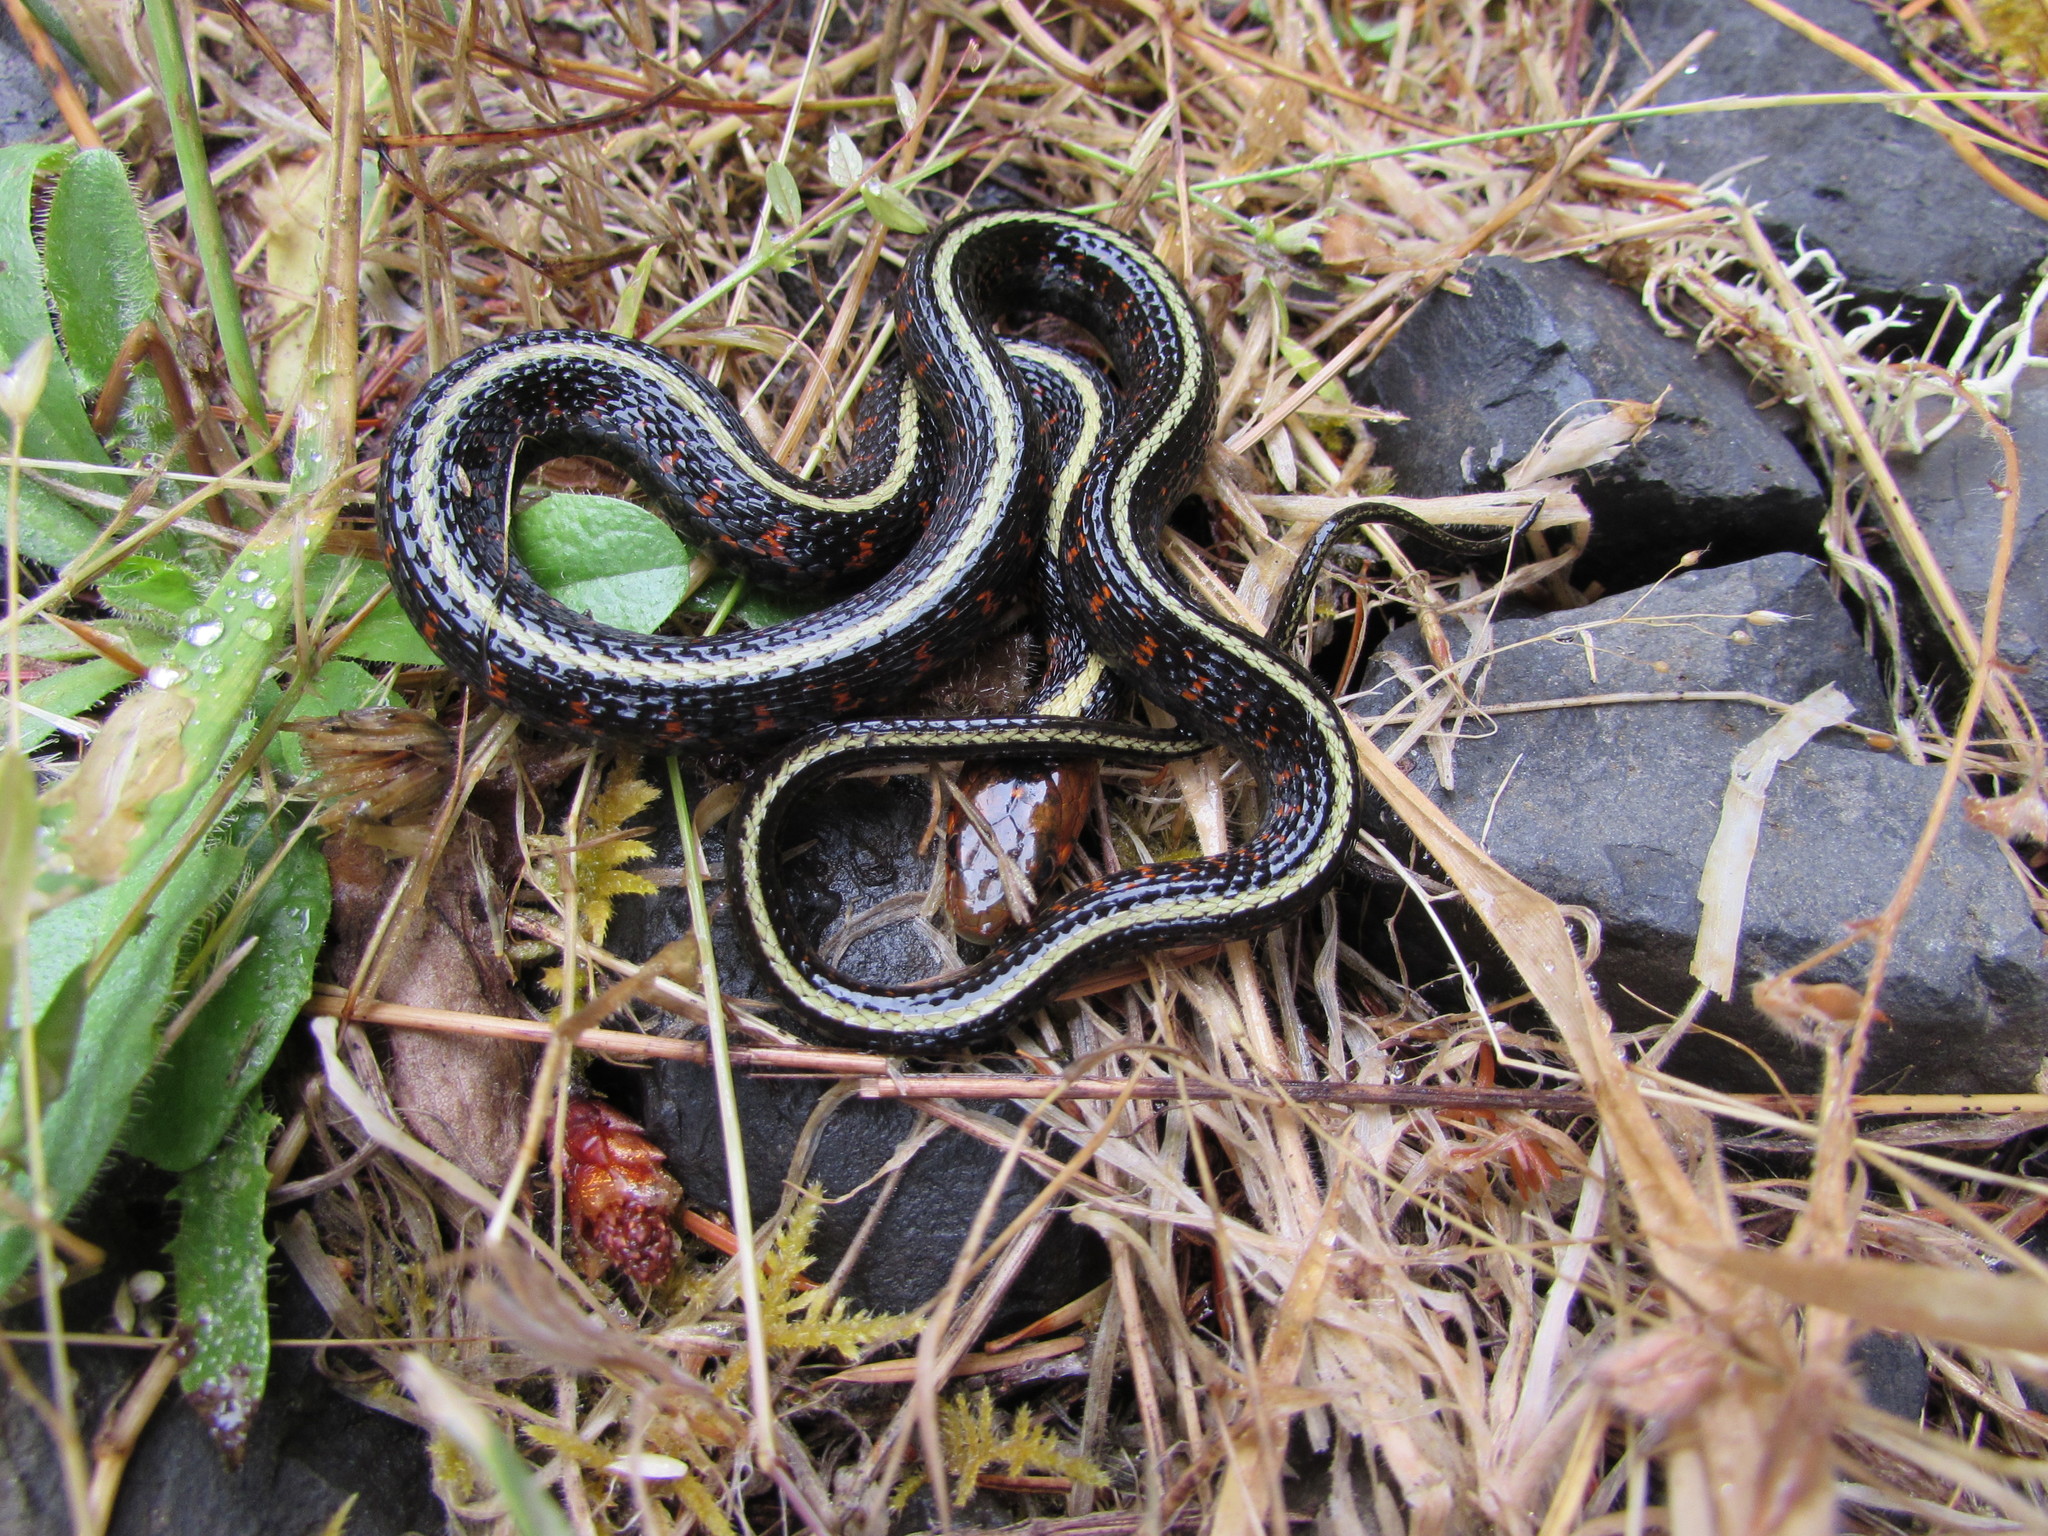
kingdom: Animalia
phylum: Chordata
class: Squamata
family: Colubridae
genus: Thamnophis
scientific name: Thamnophis sirtalis
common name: Common garter snake
